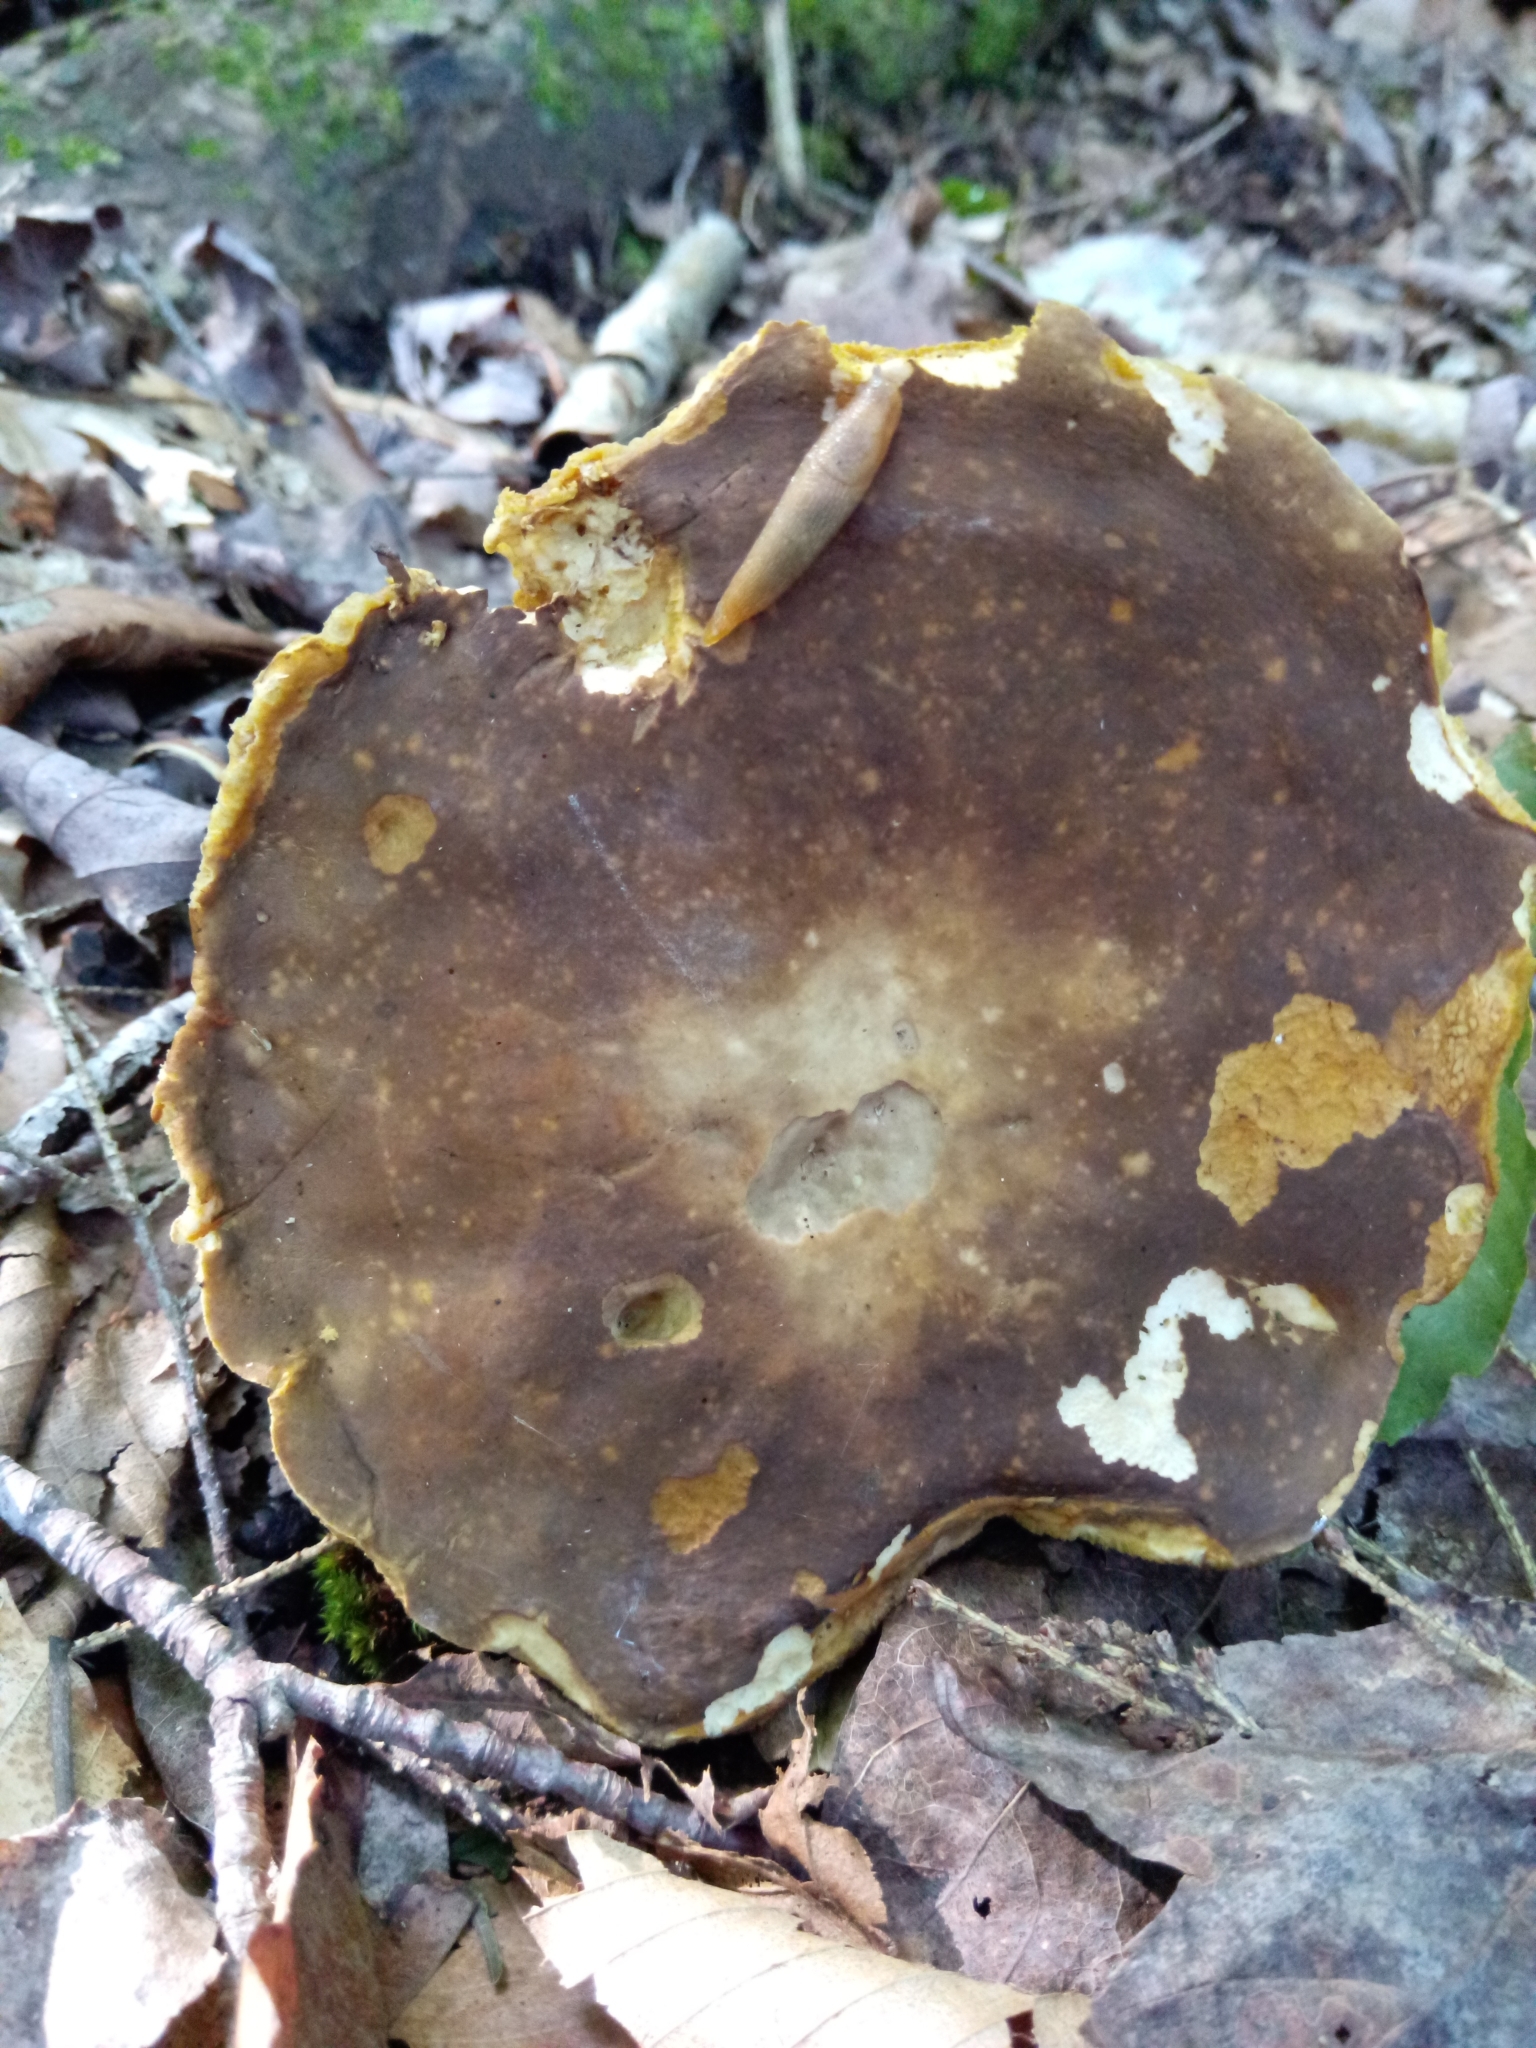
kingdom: Fungi
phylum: Basidiomycota
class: Agaricomycetes
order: Boletales
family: Boletaceae
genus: Xanthoconium
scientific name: Xanthoconium affine
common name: Spotted bolete
